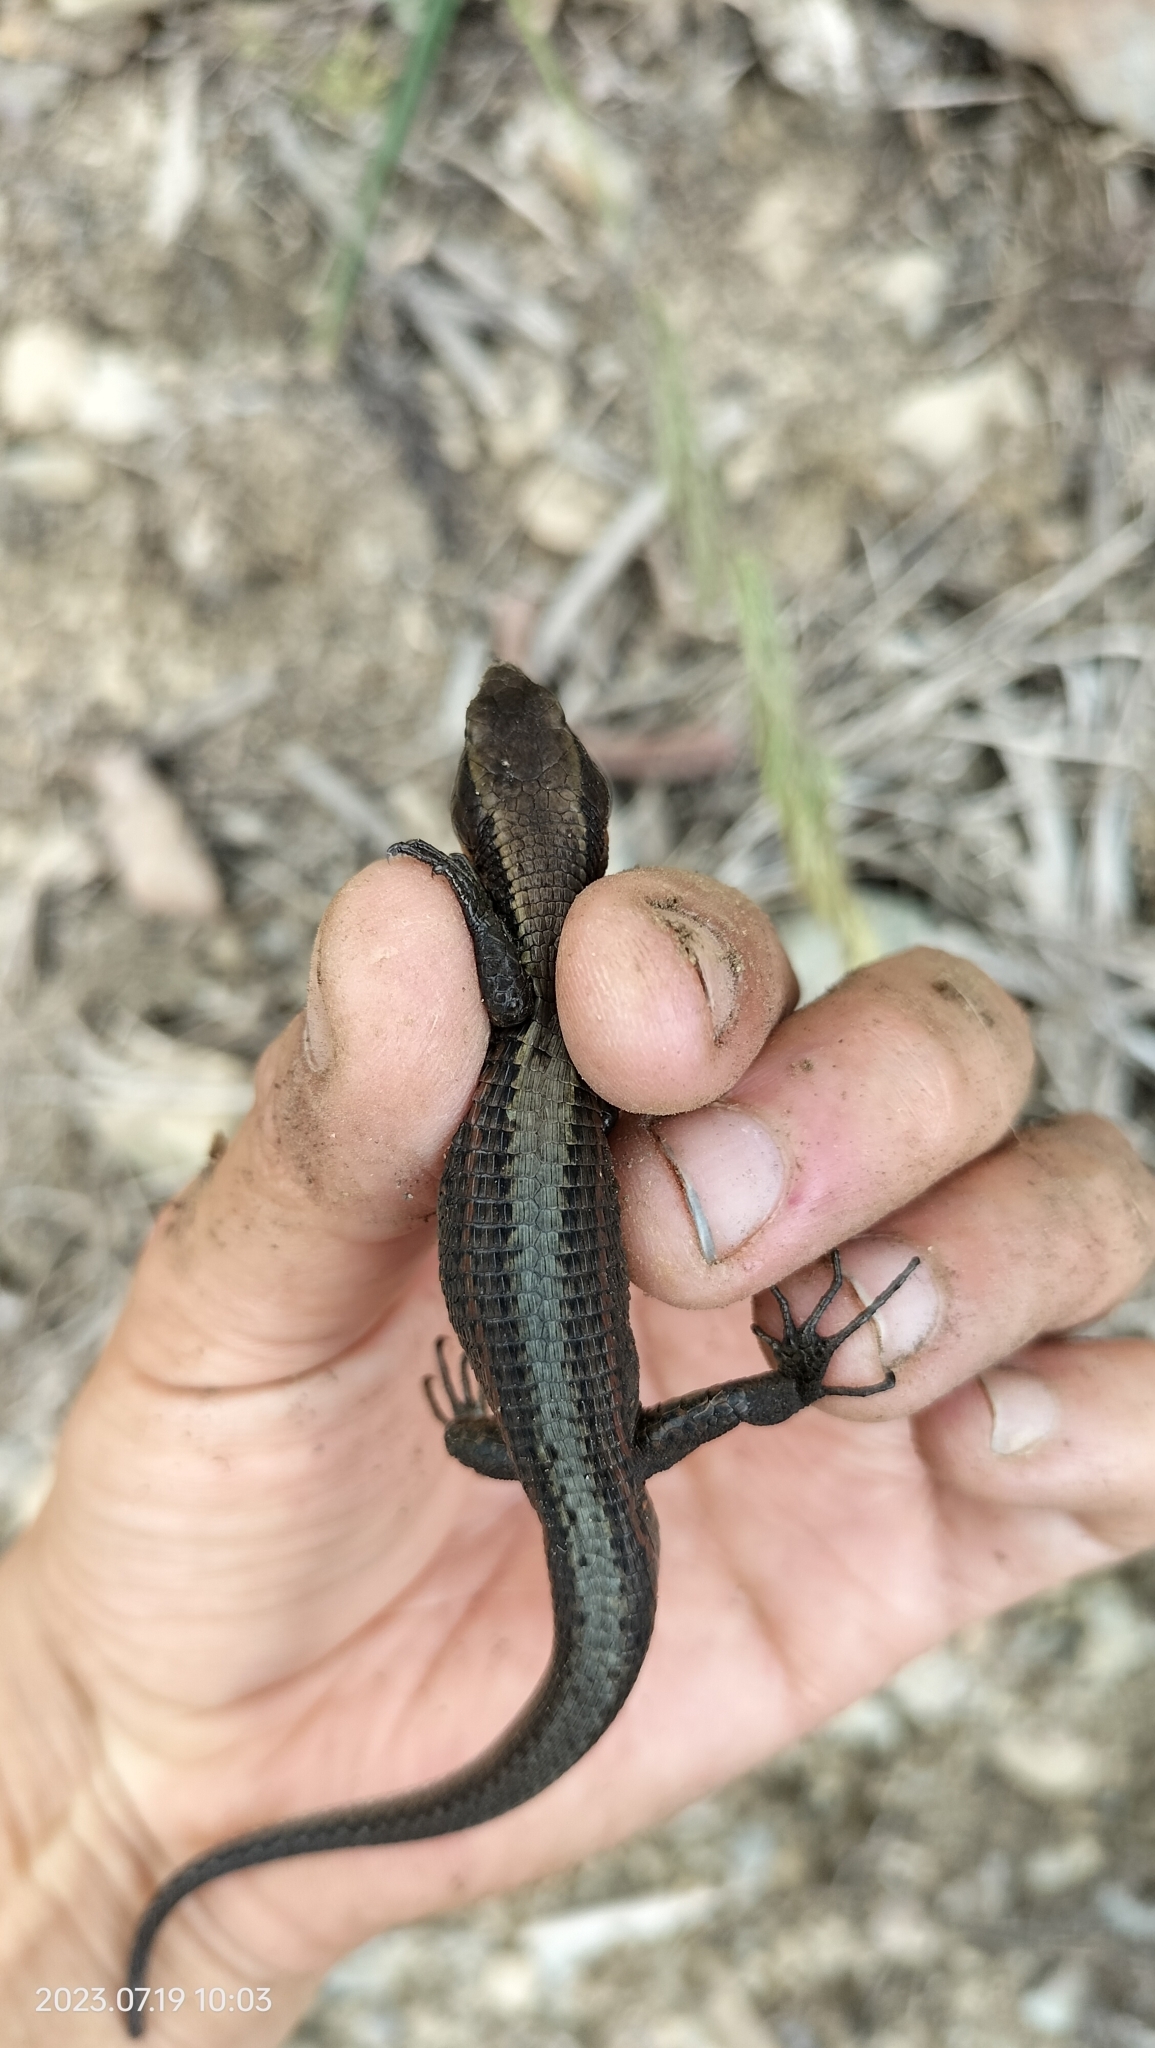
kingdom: Animalia
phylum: Chordata
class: Squamata
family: Gymnophthalmidae
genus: Proctoporus
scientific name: Proctoporus chasqui
